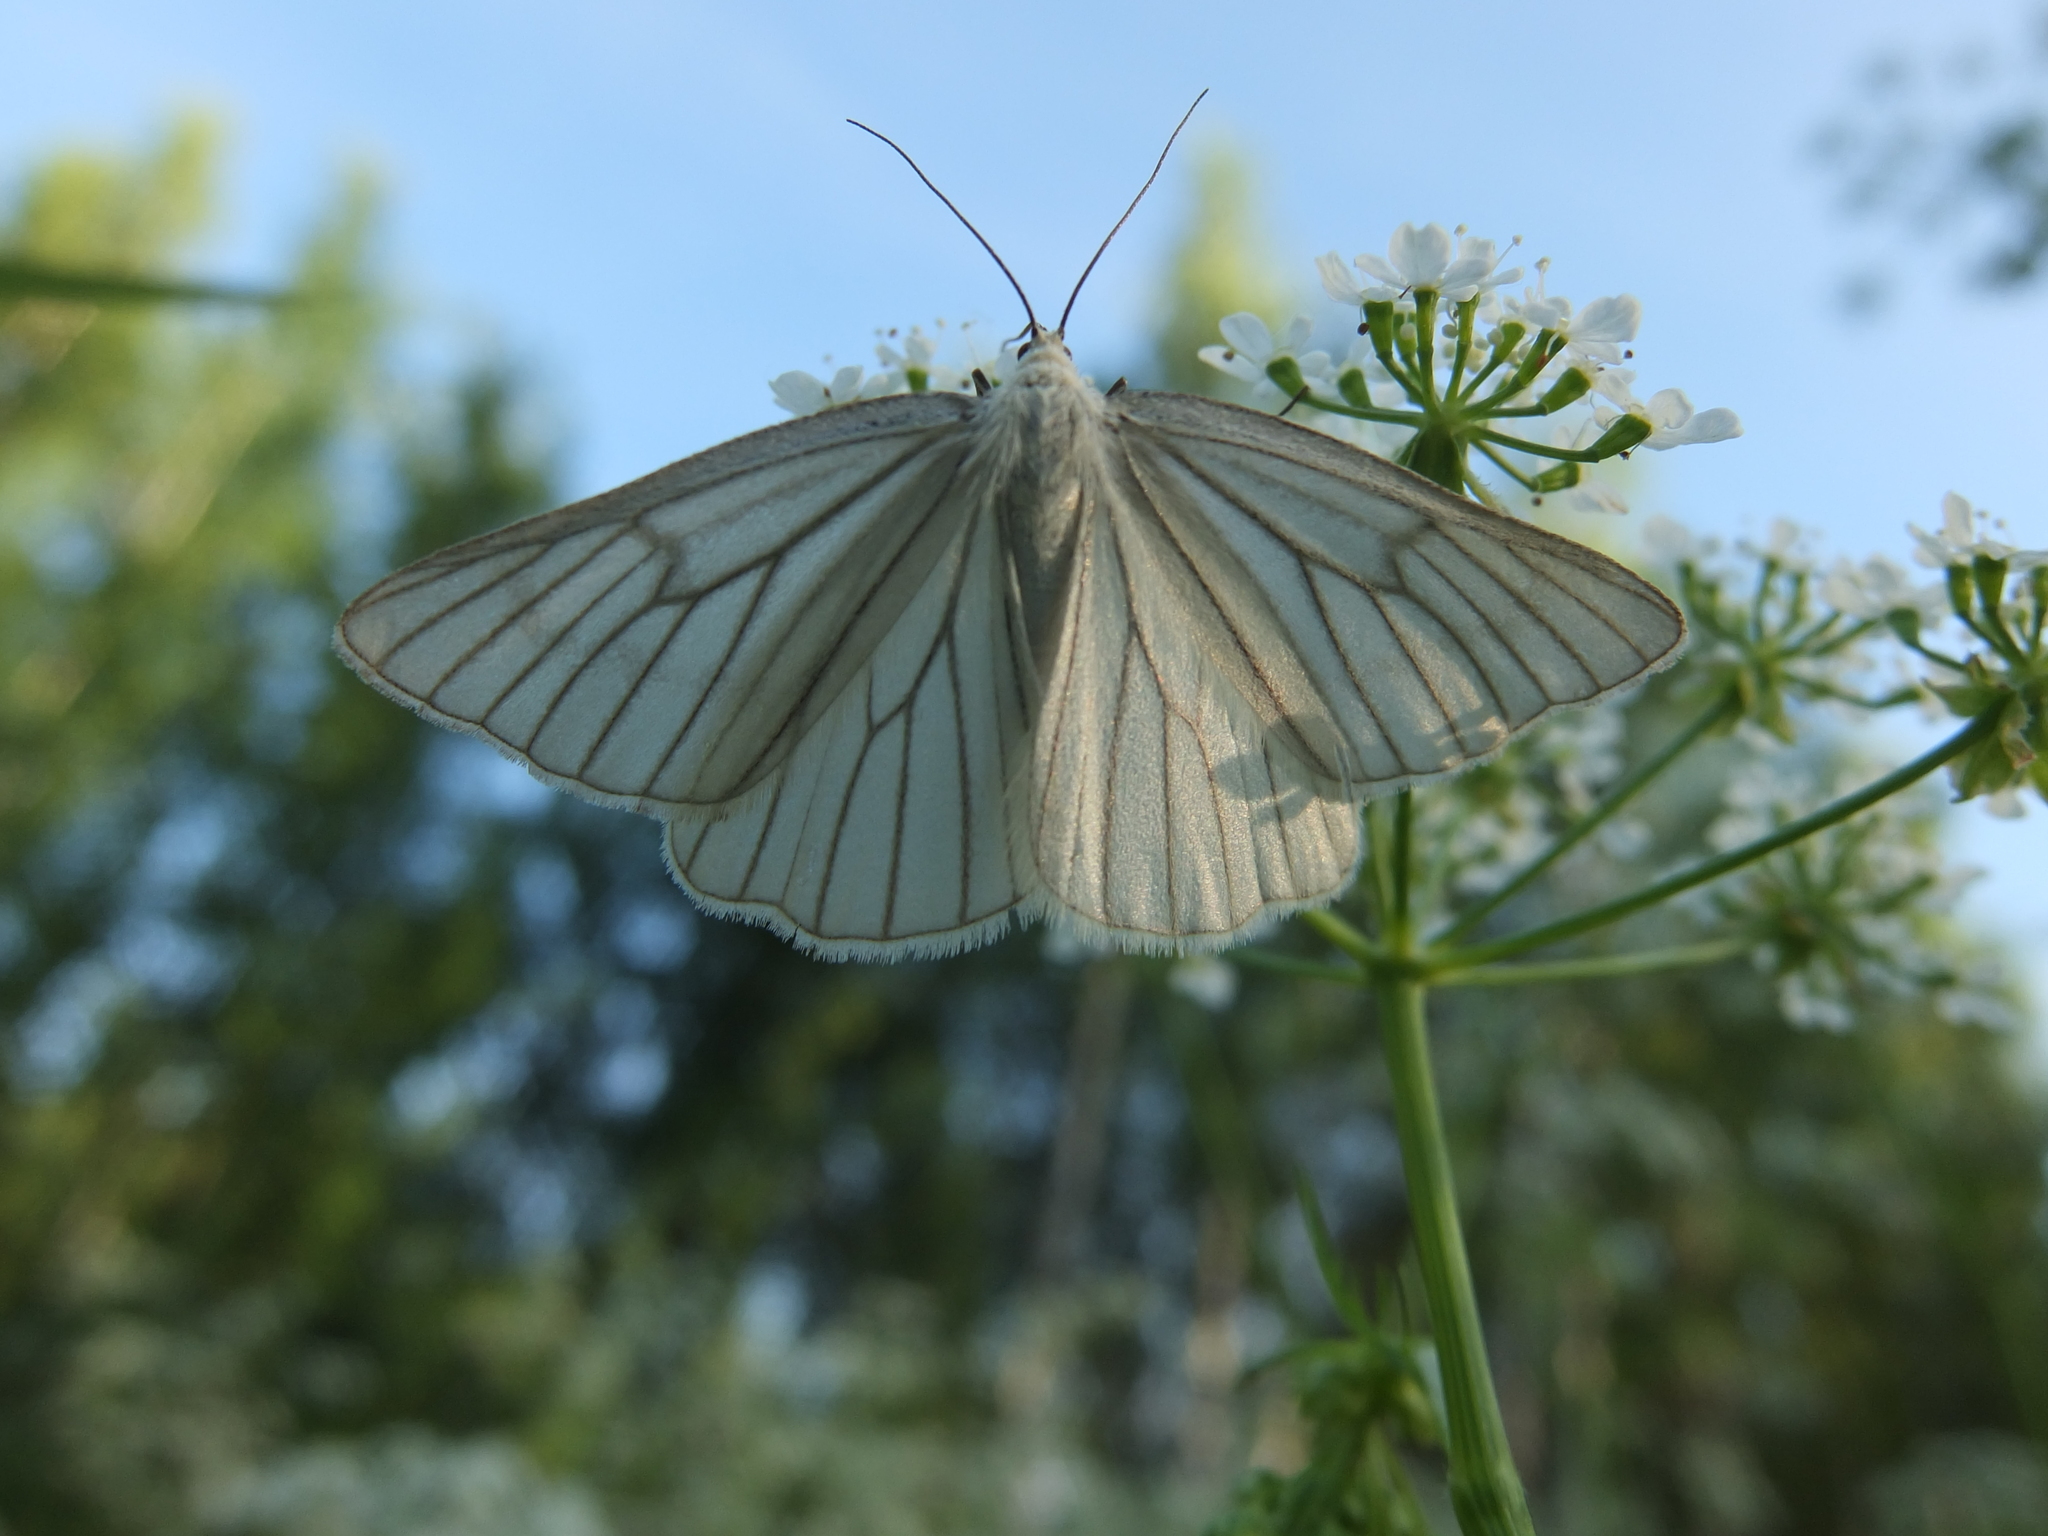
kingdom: Animalia
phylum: Arthropoda
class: Insecta
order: Lepidoptera
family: Geometridae
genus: Siona
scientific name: Siona lineata
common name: Black-veined moth
